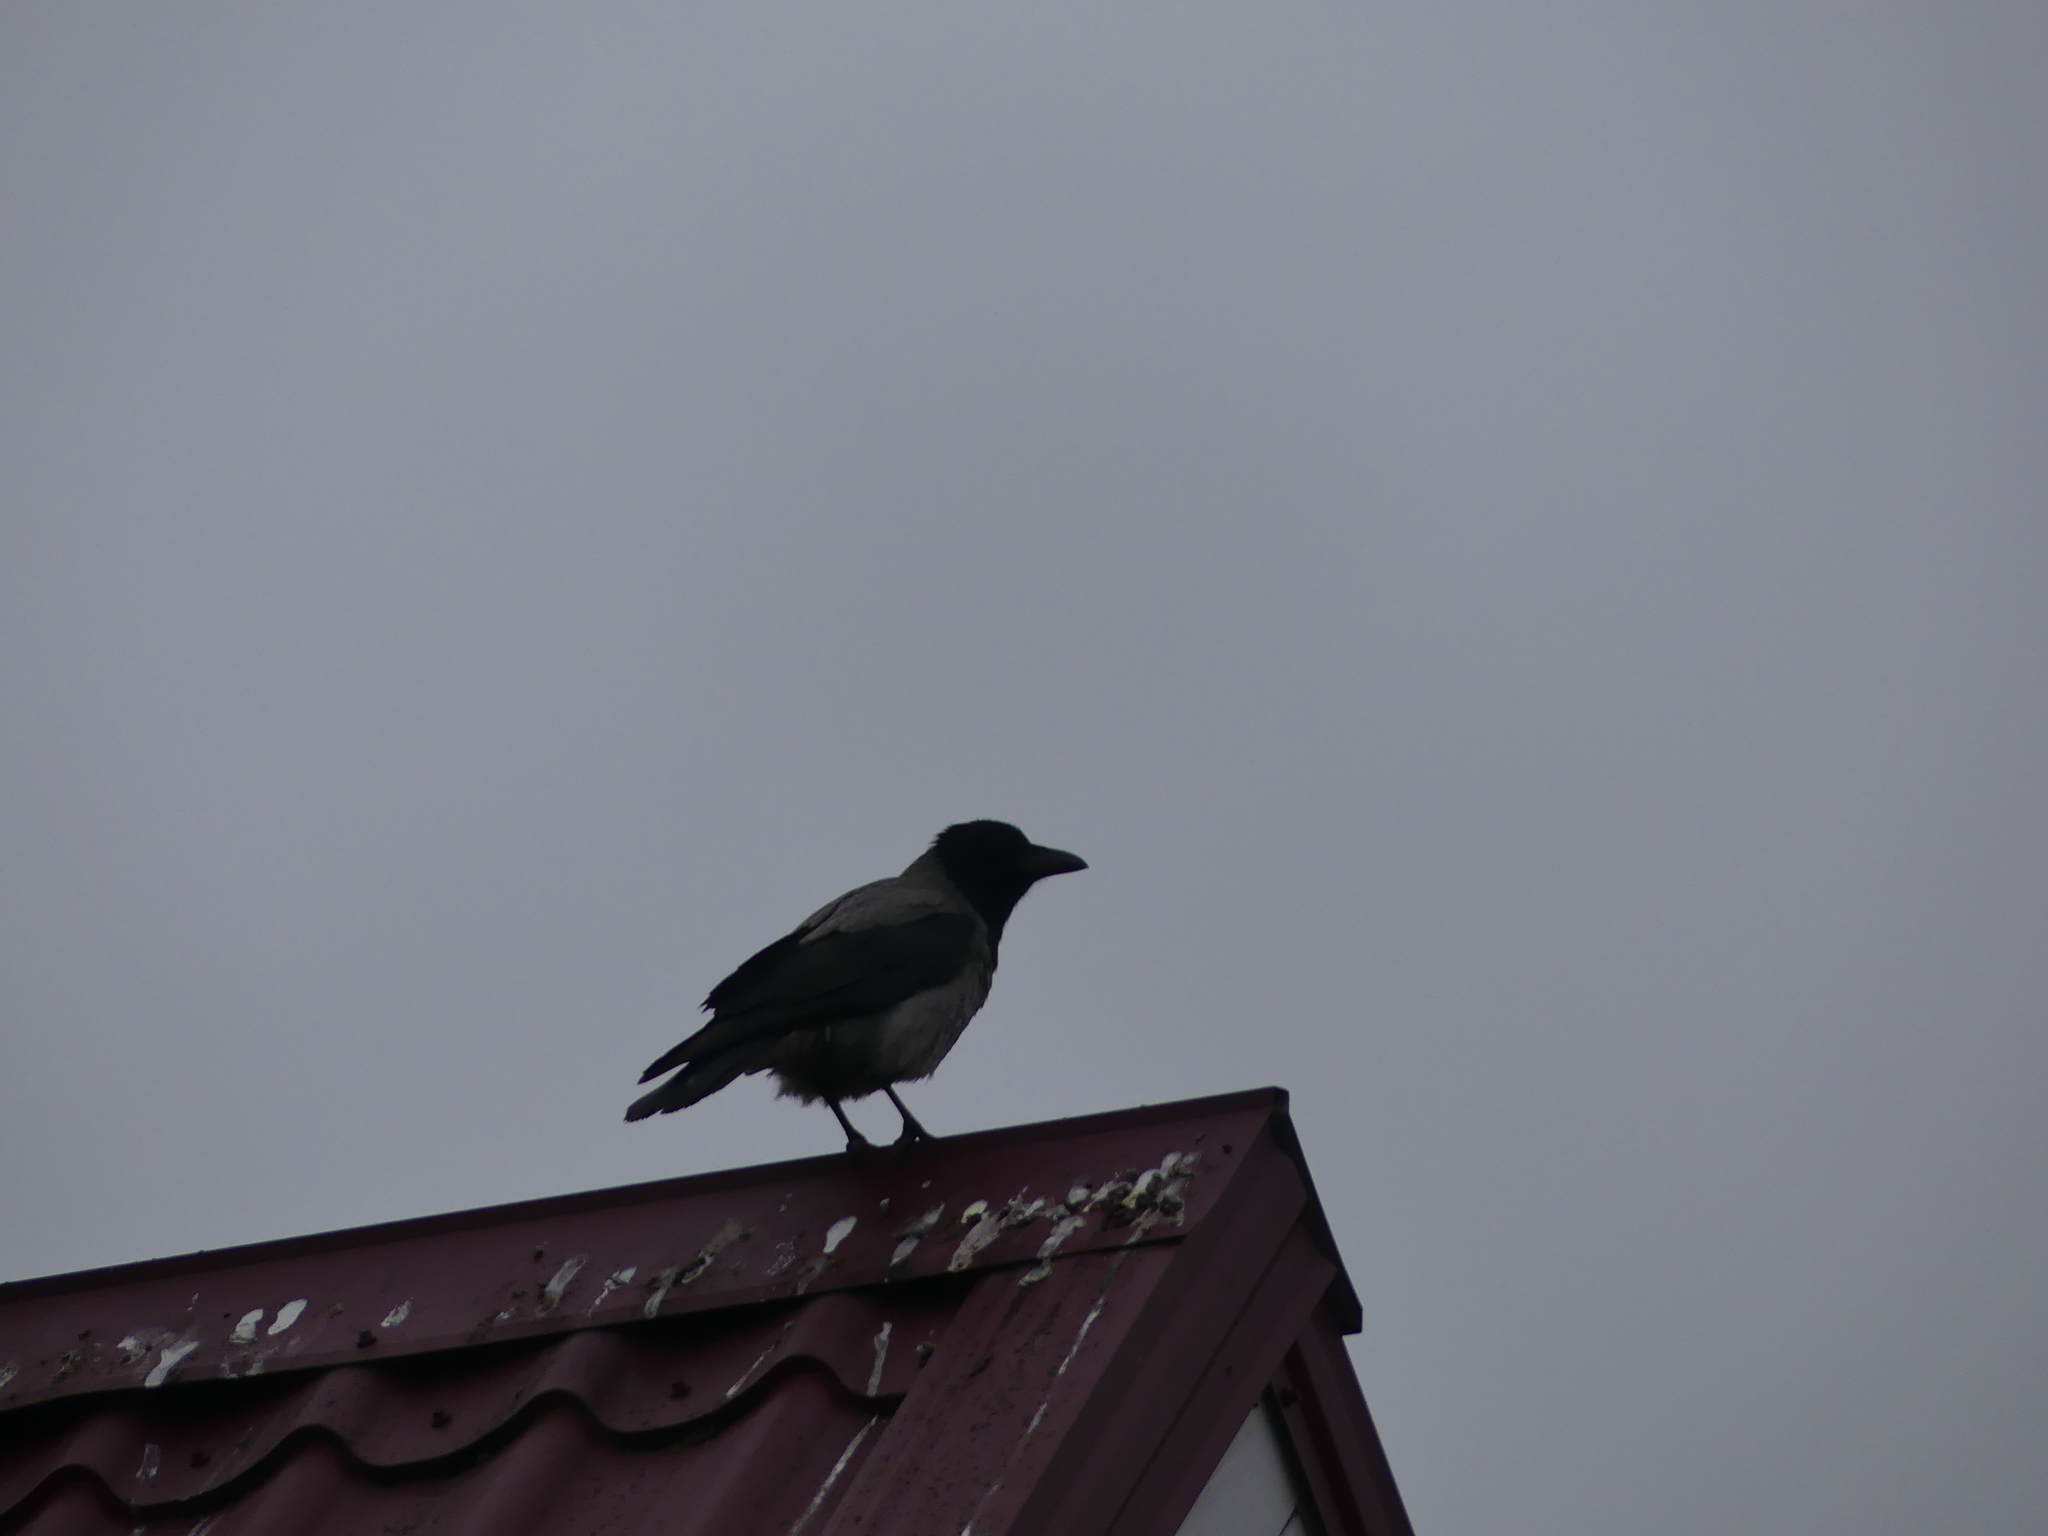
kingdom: Animalia
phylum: Chordata
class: Aves
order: Passeriformes
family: Corvidae
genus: Corvus
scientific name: Corvus cornix
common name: Hooded crow
